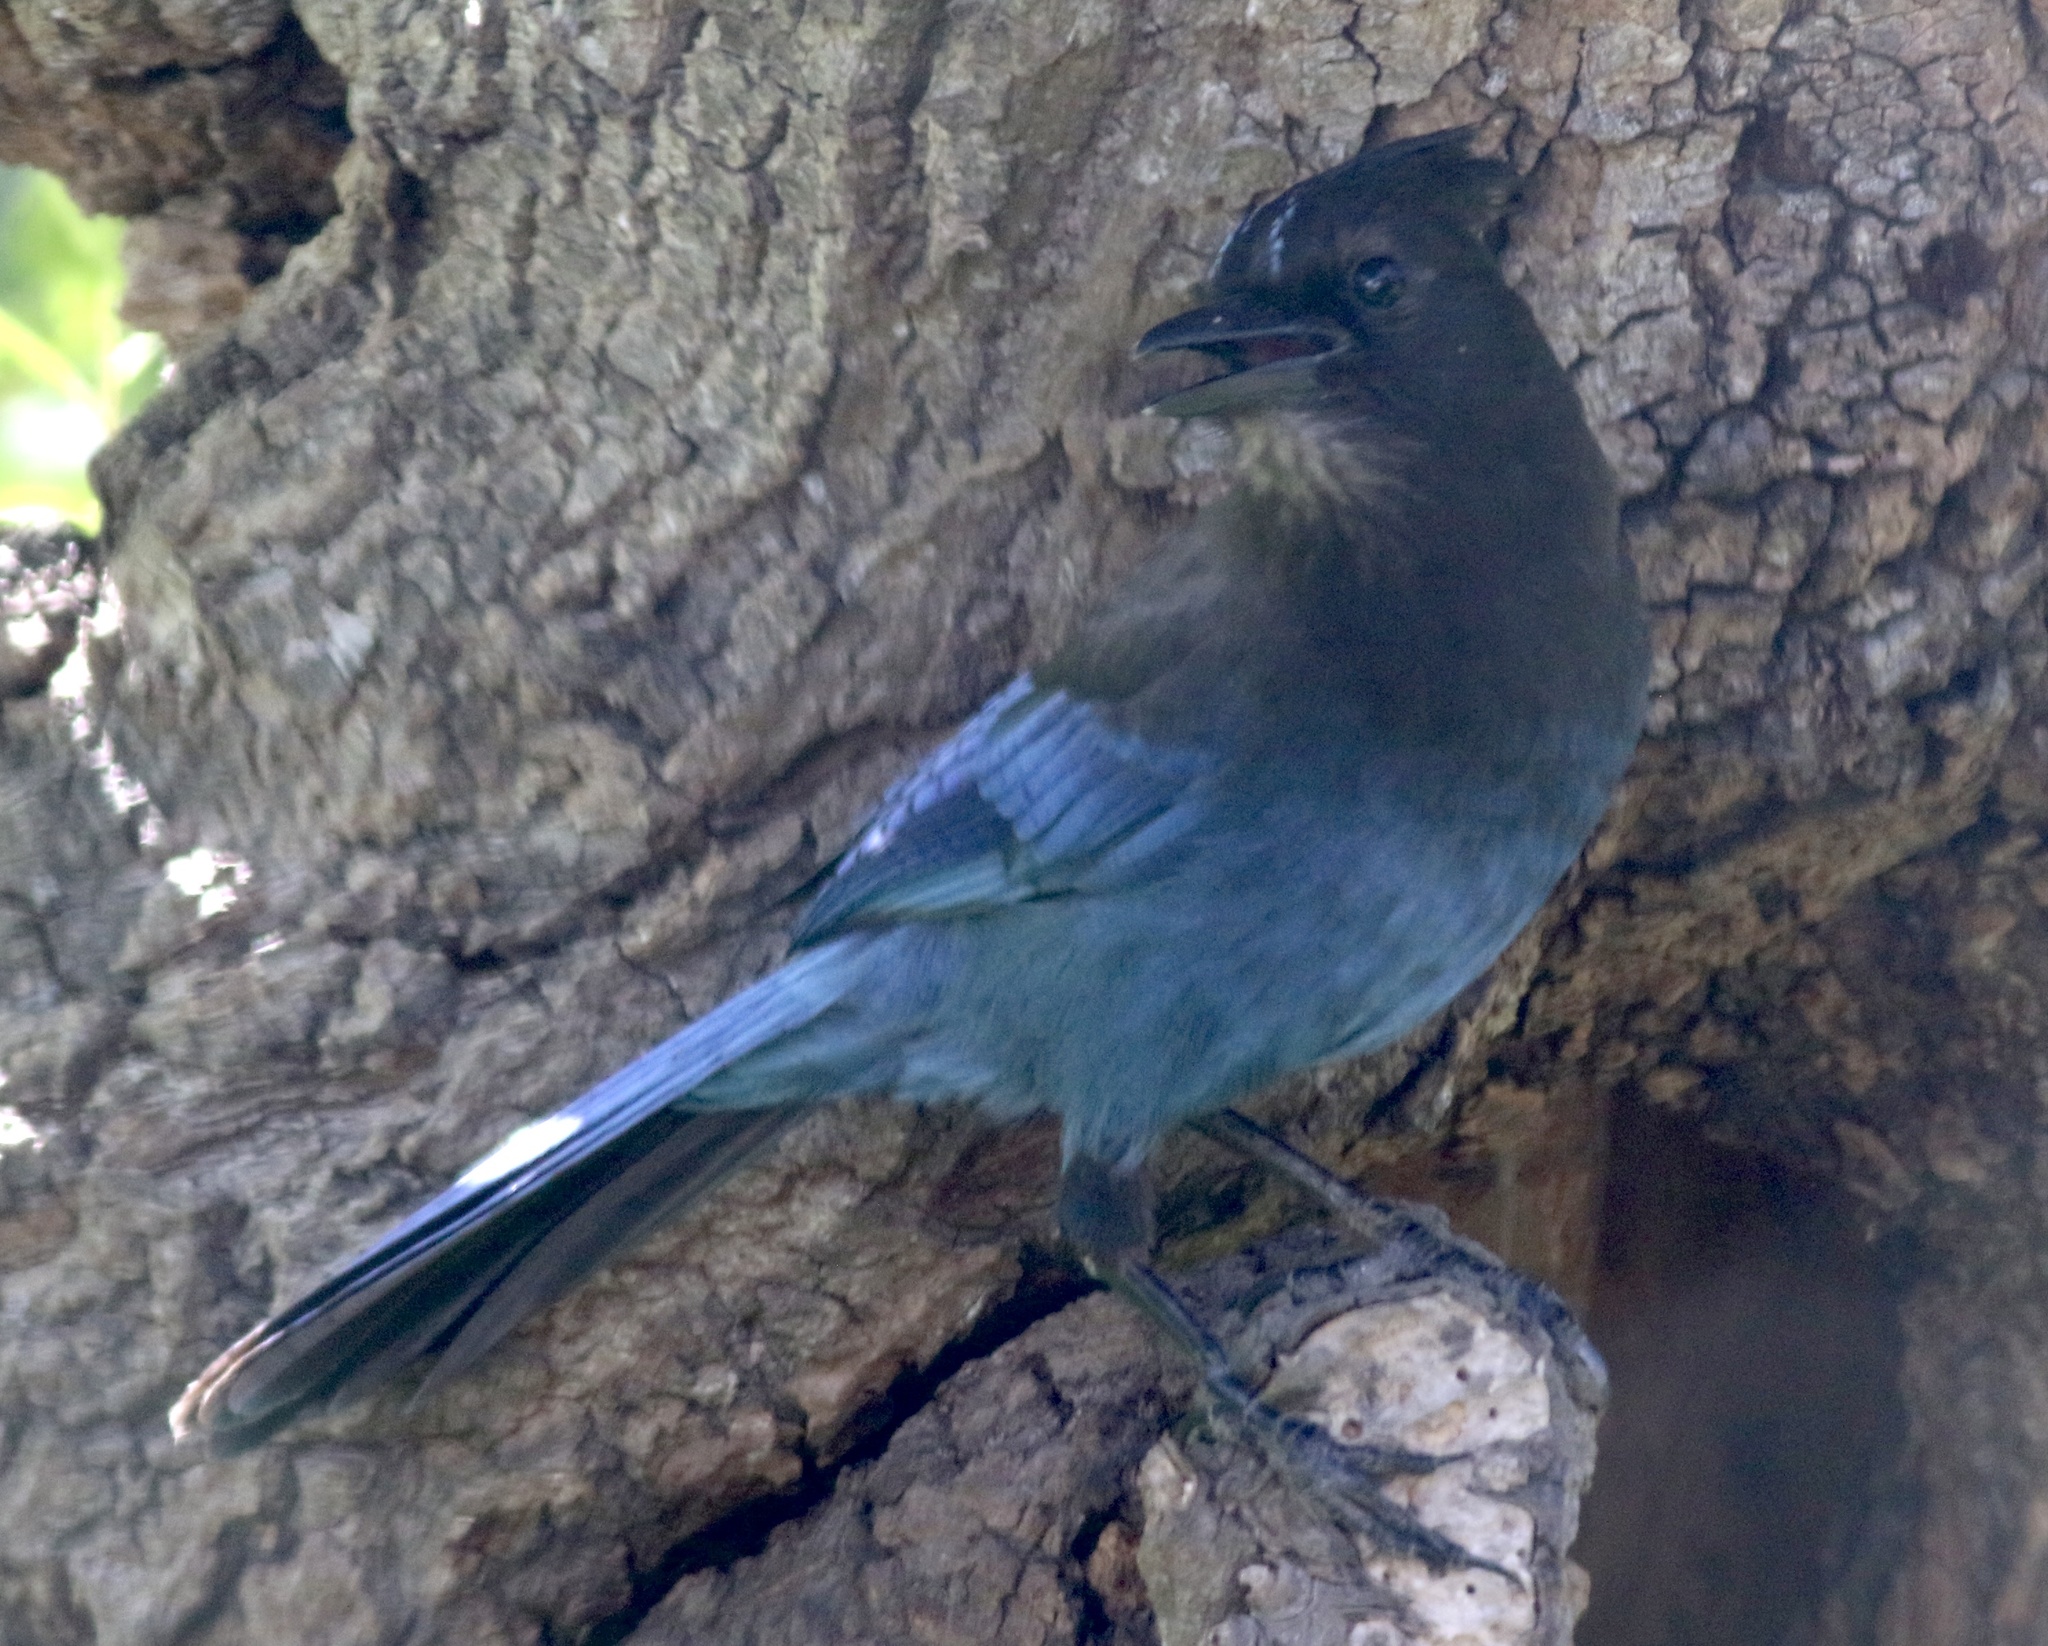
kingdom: Animalia
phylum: Chordata
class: Aves
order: Passeriformes
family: Corvidae
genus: Cyanocitta
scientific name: Cyanocitta stelleri
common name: Steller's jay
